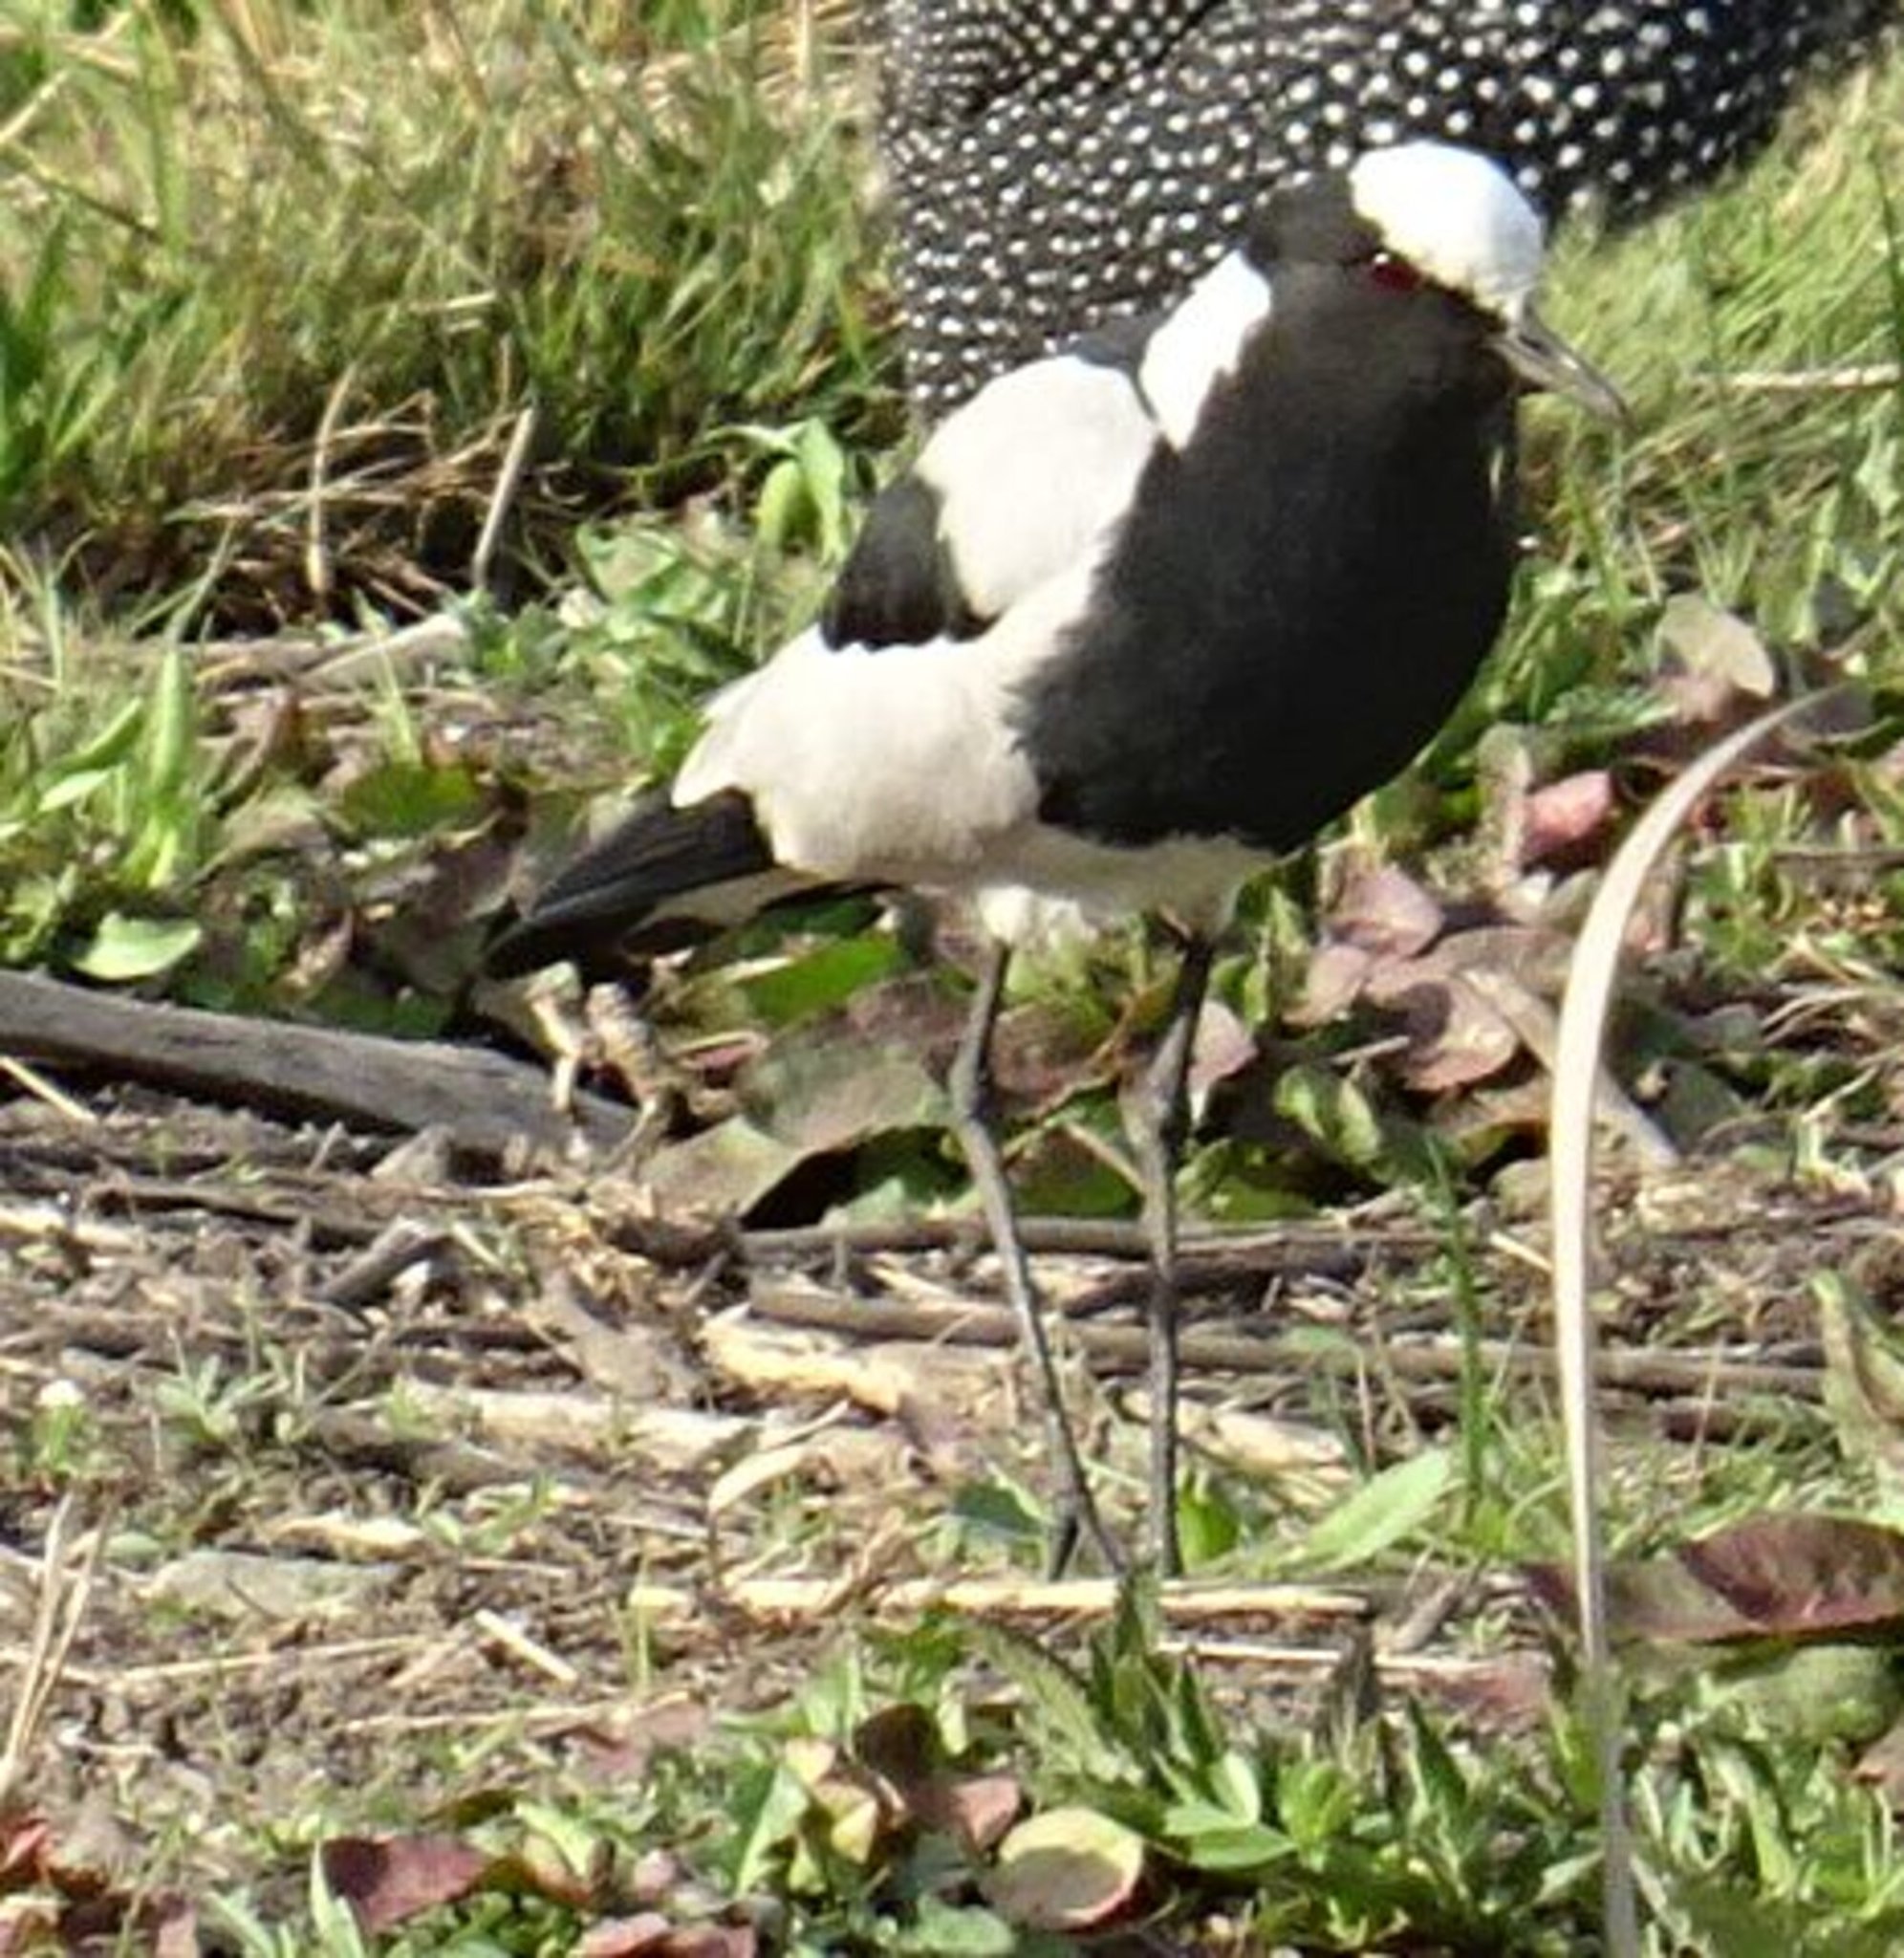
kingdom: Animalia
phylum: Chordata
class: Aves
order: Charadriiformes
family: Charadriidae
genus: Vanellus
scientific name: Vanellus armatus
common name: Blacksmith lapwing
